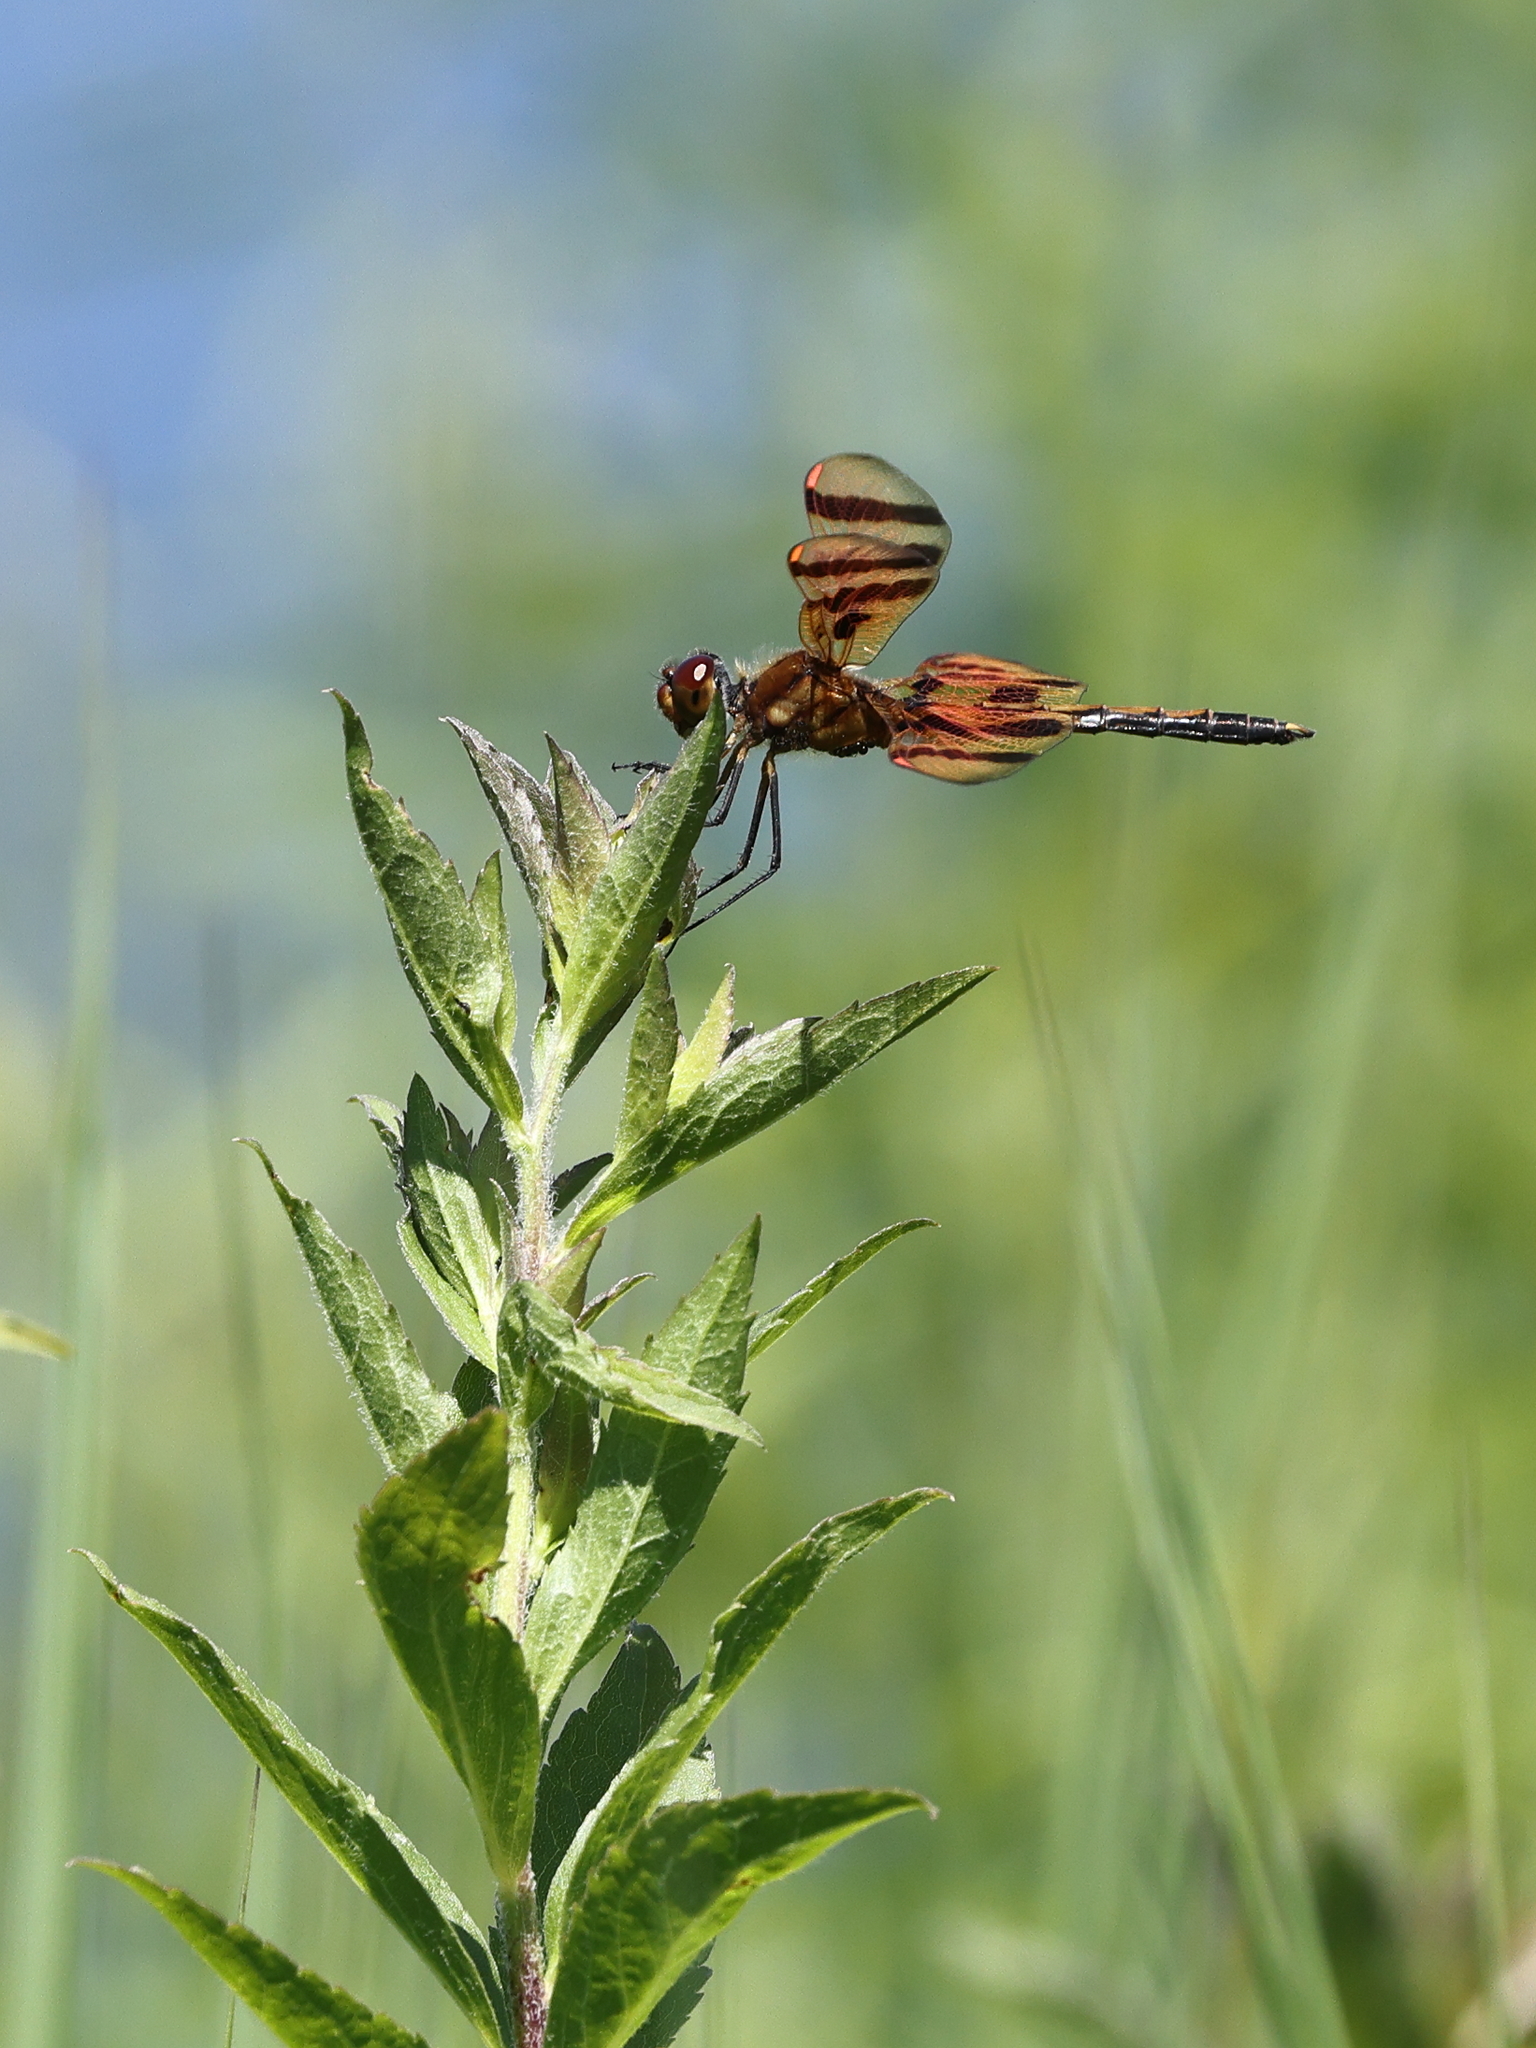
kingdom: Animalia
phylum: Arthropoda
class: Insecta
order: Odonata
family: Libellulidae
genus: Celithemis
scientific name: Celithemis eponina
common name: Halloween pennant
